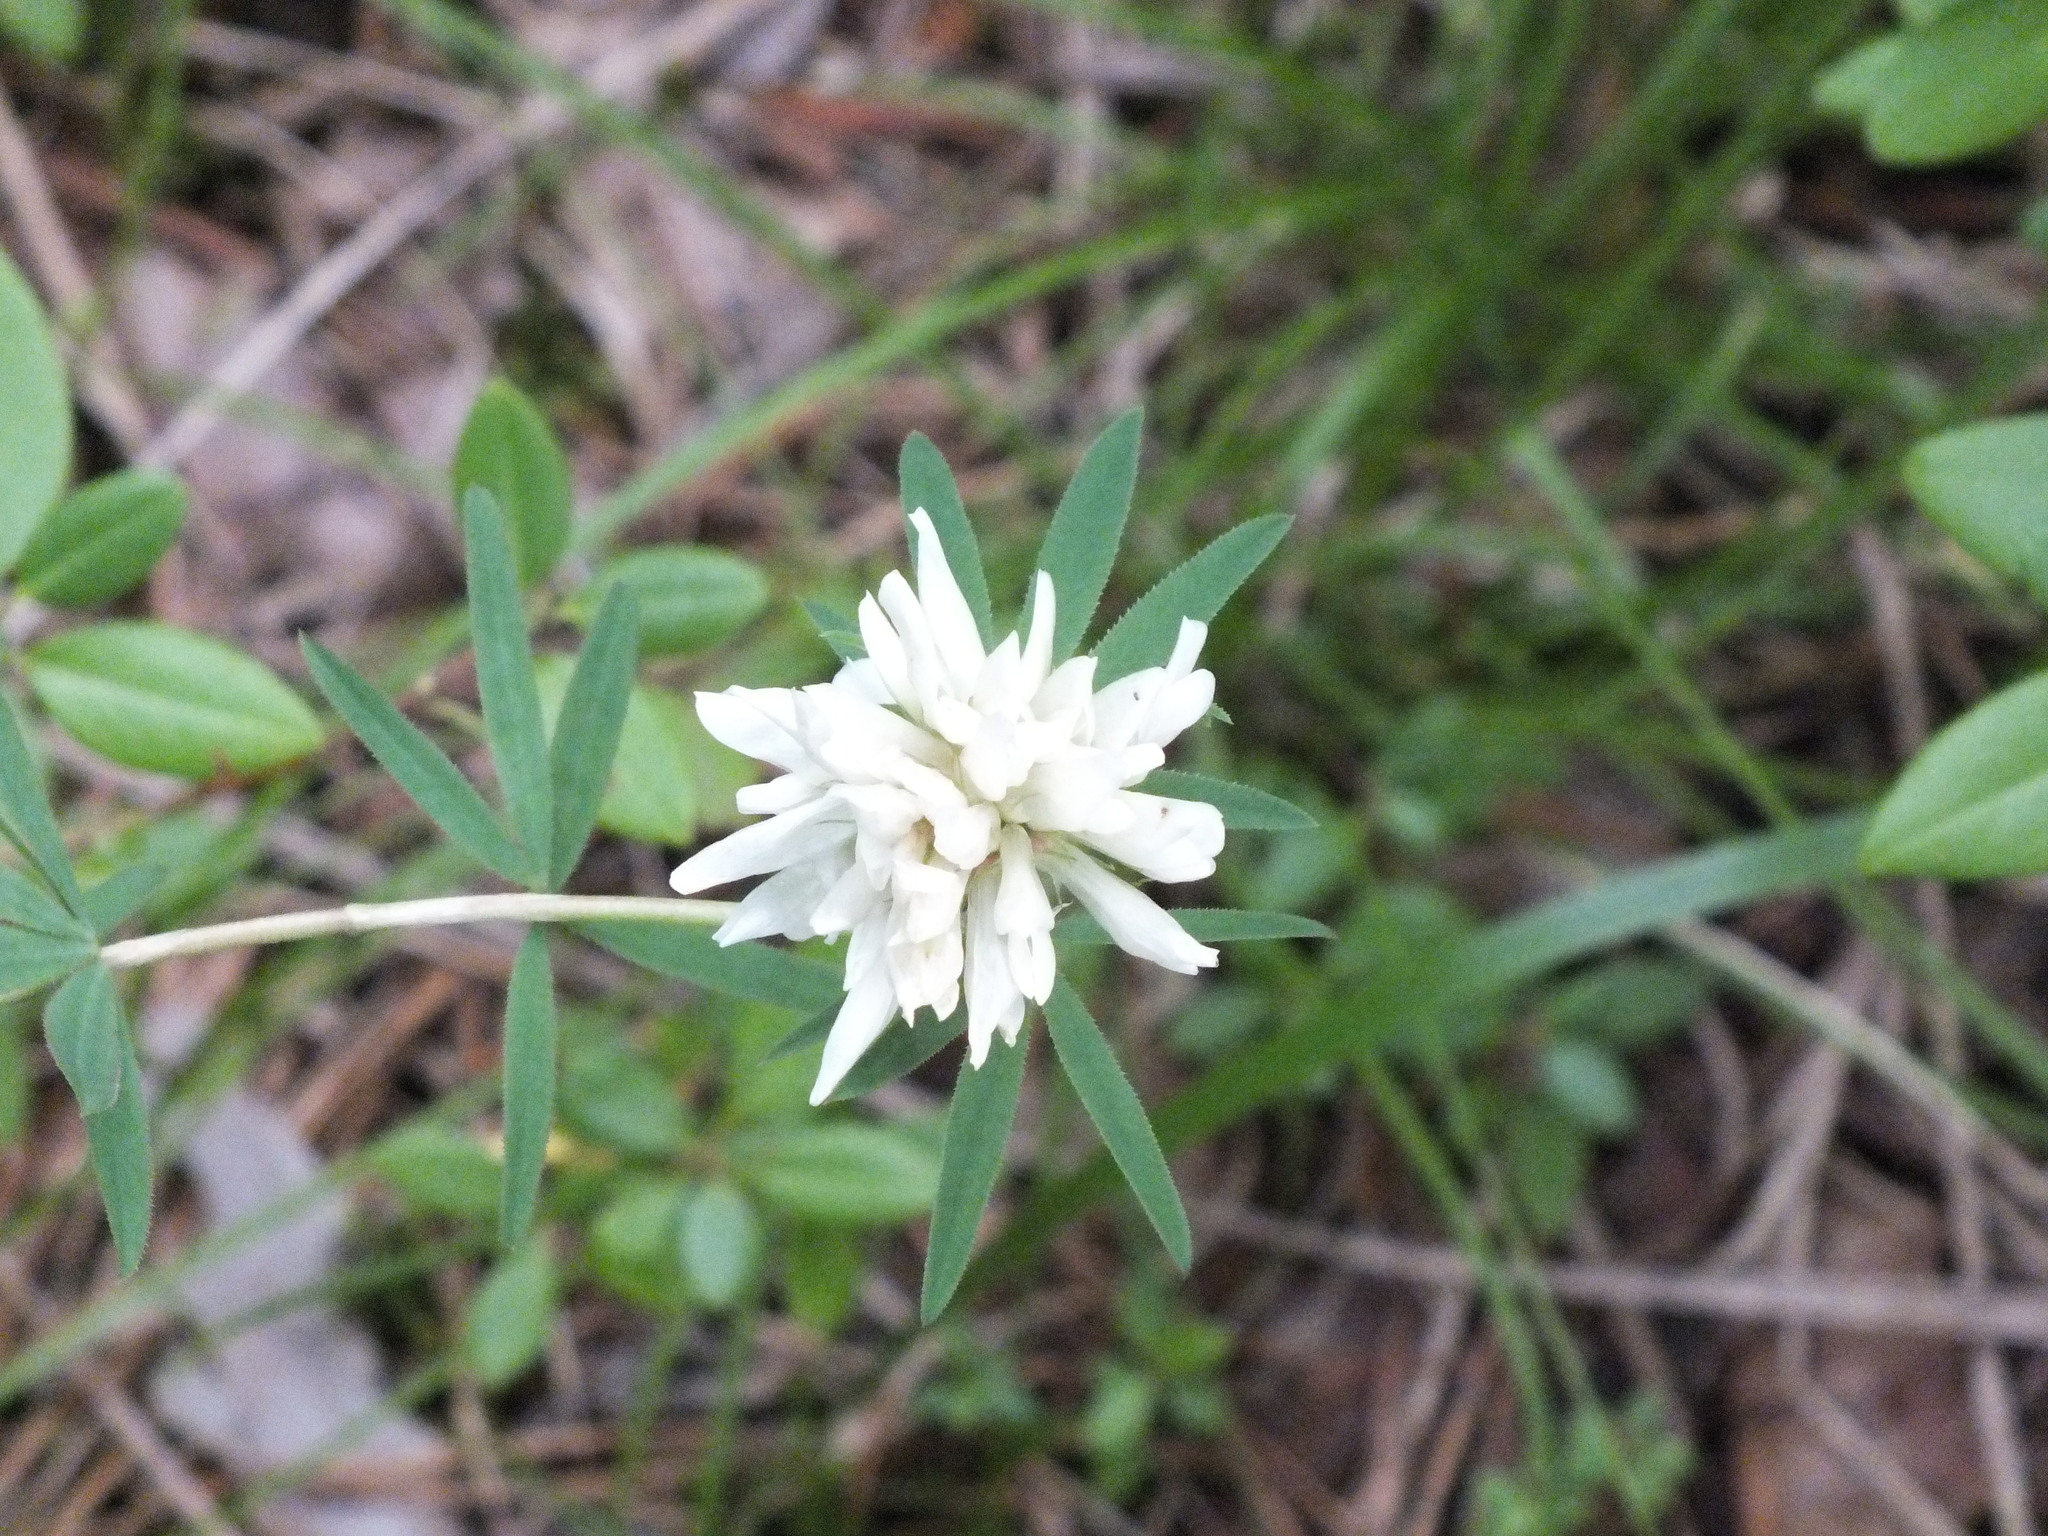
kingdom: Plantae
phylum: Tracheophyta
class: Magnoliopsida
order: Fabales
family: Fabaceae
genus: Trifolium
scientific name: Trifolium lupinaster
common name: Lupine clover
